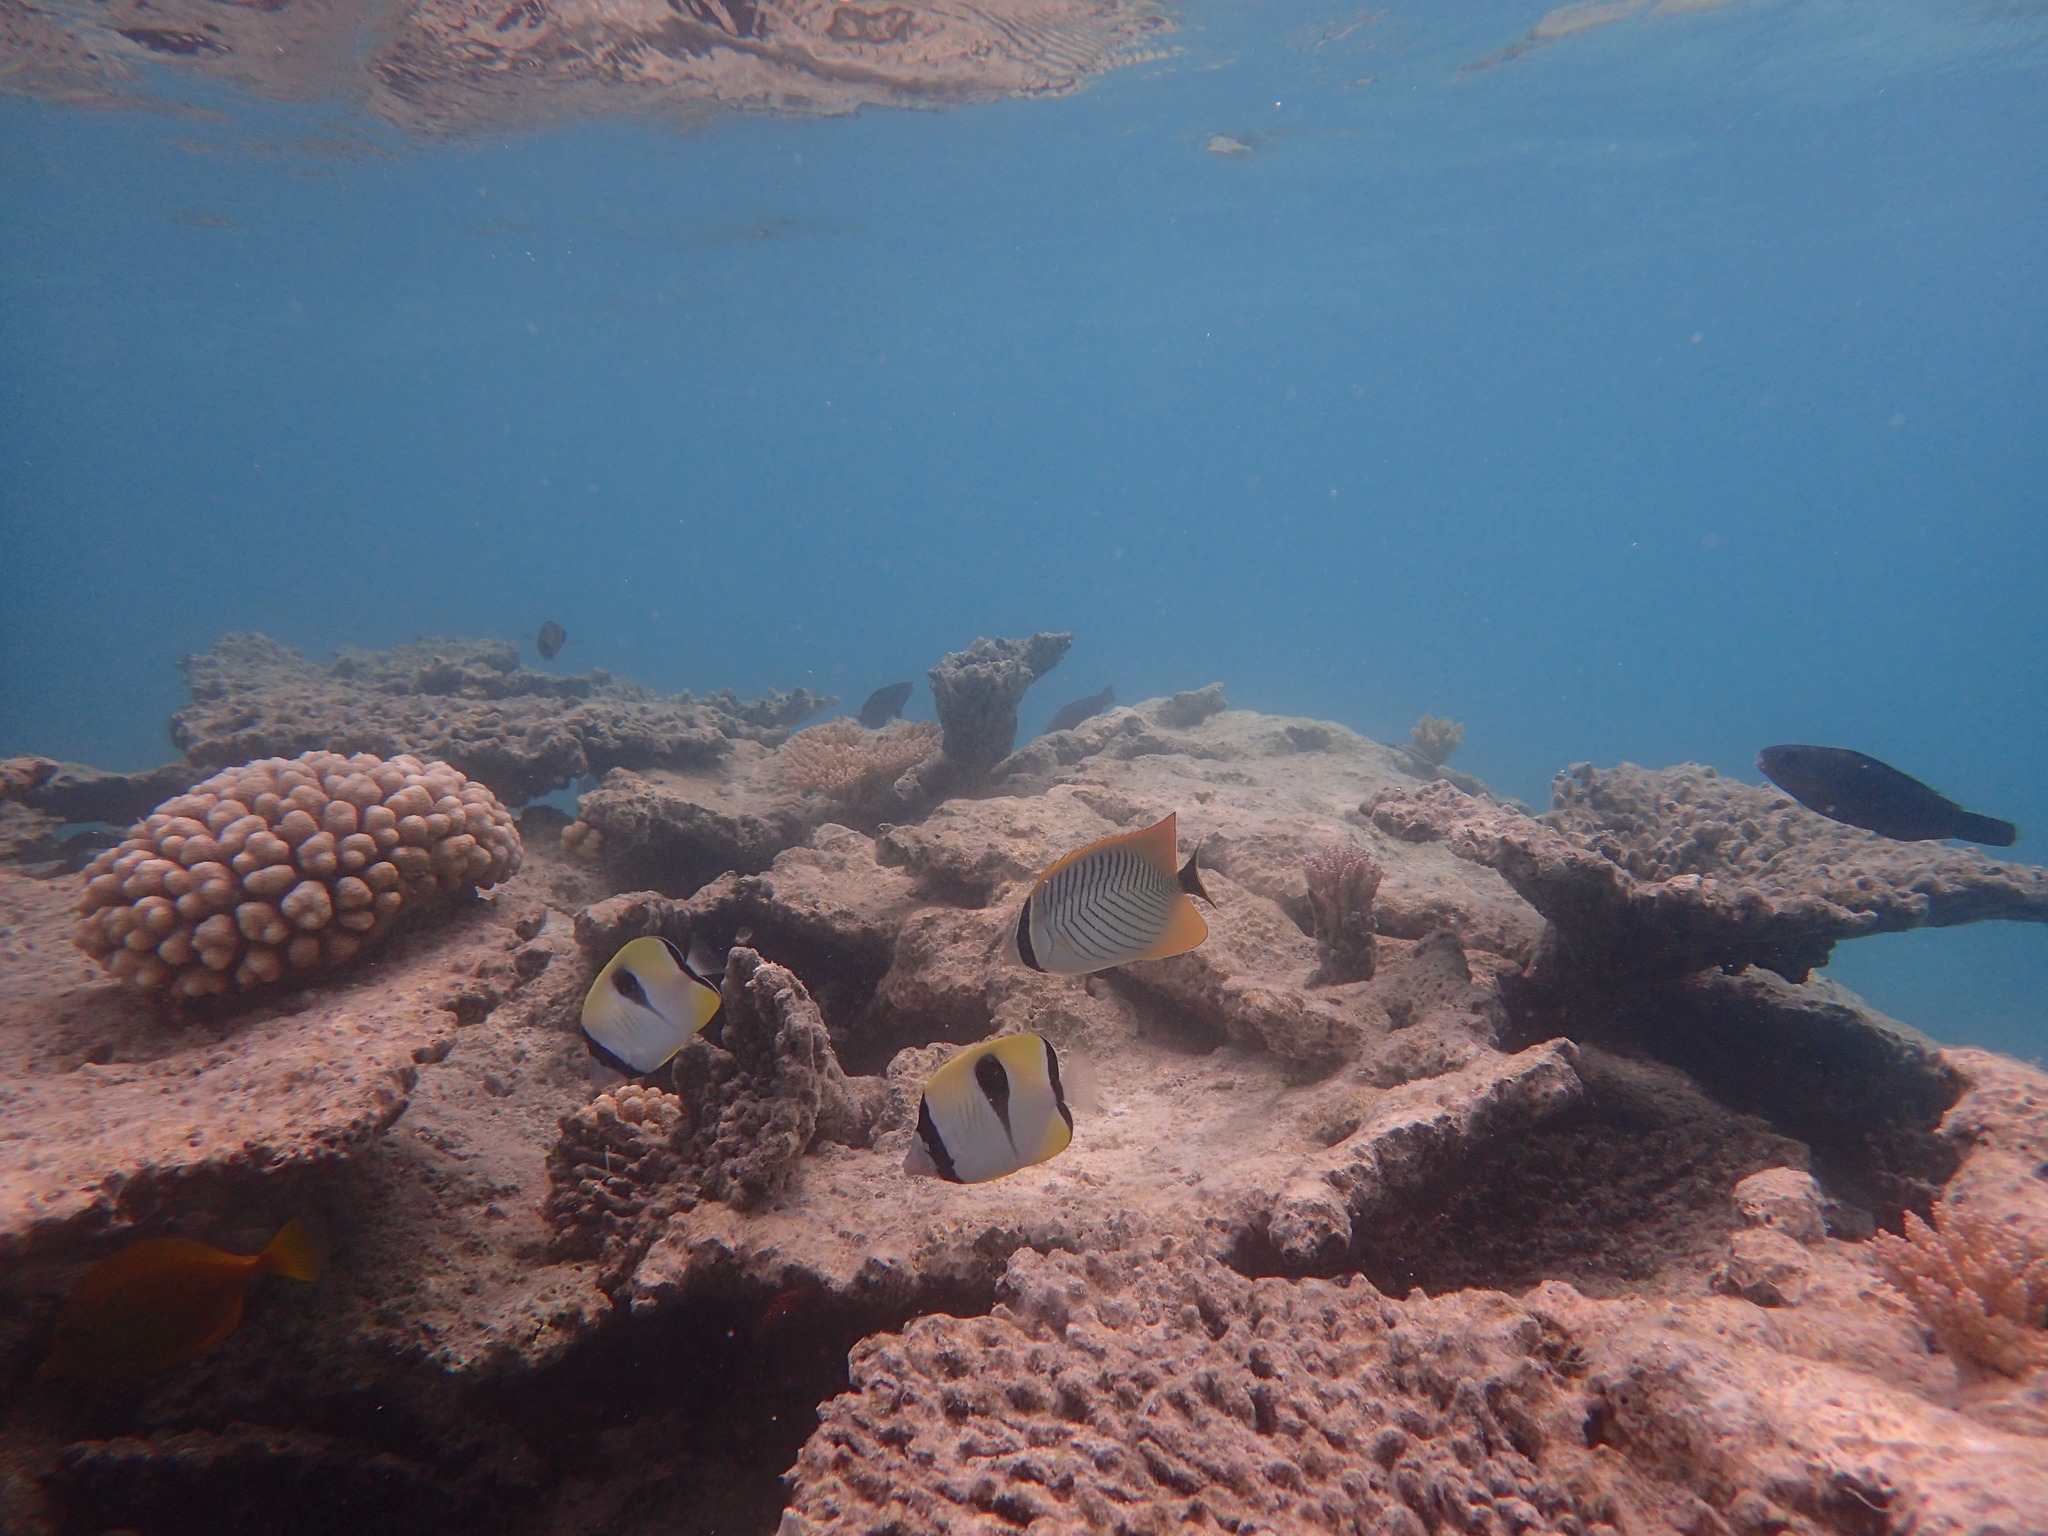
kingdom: Animalia
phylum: Chordata
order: Perciformes
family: Chaetodontidae
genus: Chaetodon
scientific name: Chaetodon trifascialis
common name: Chevroned butterflyfish
